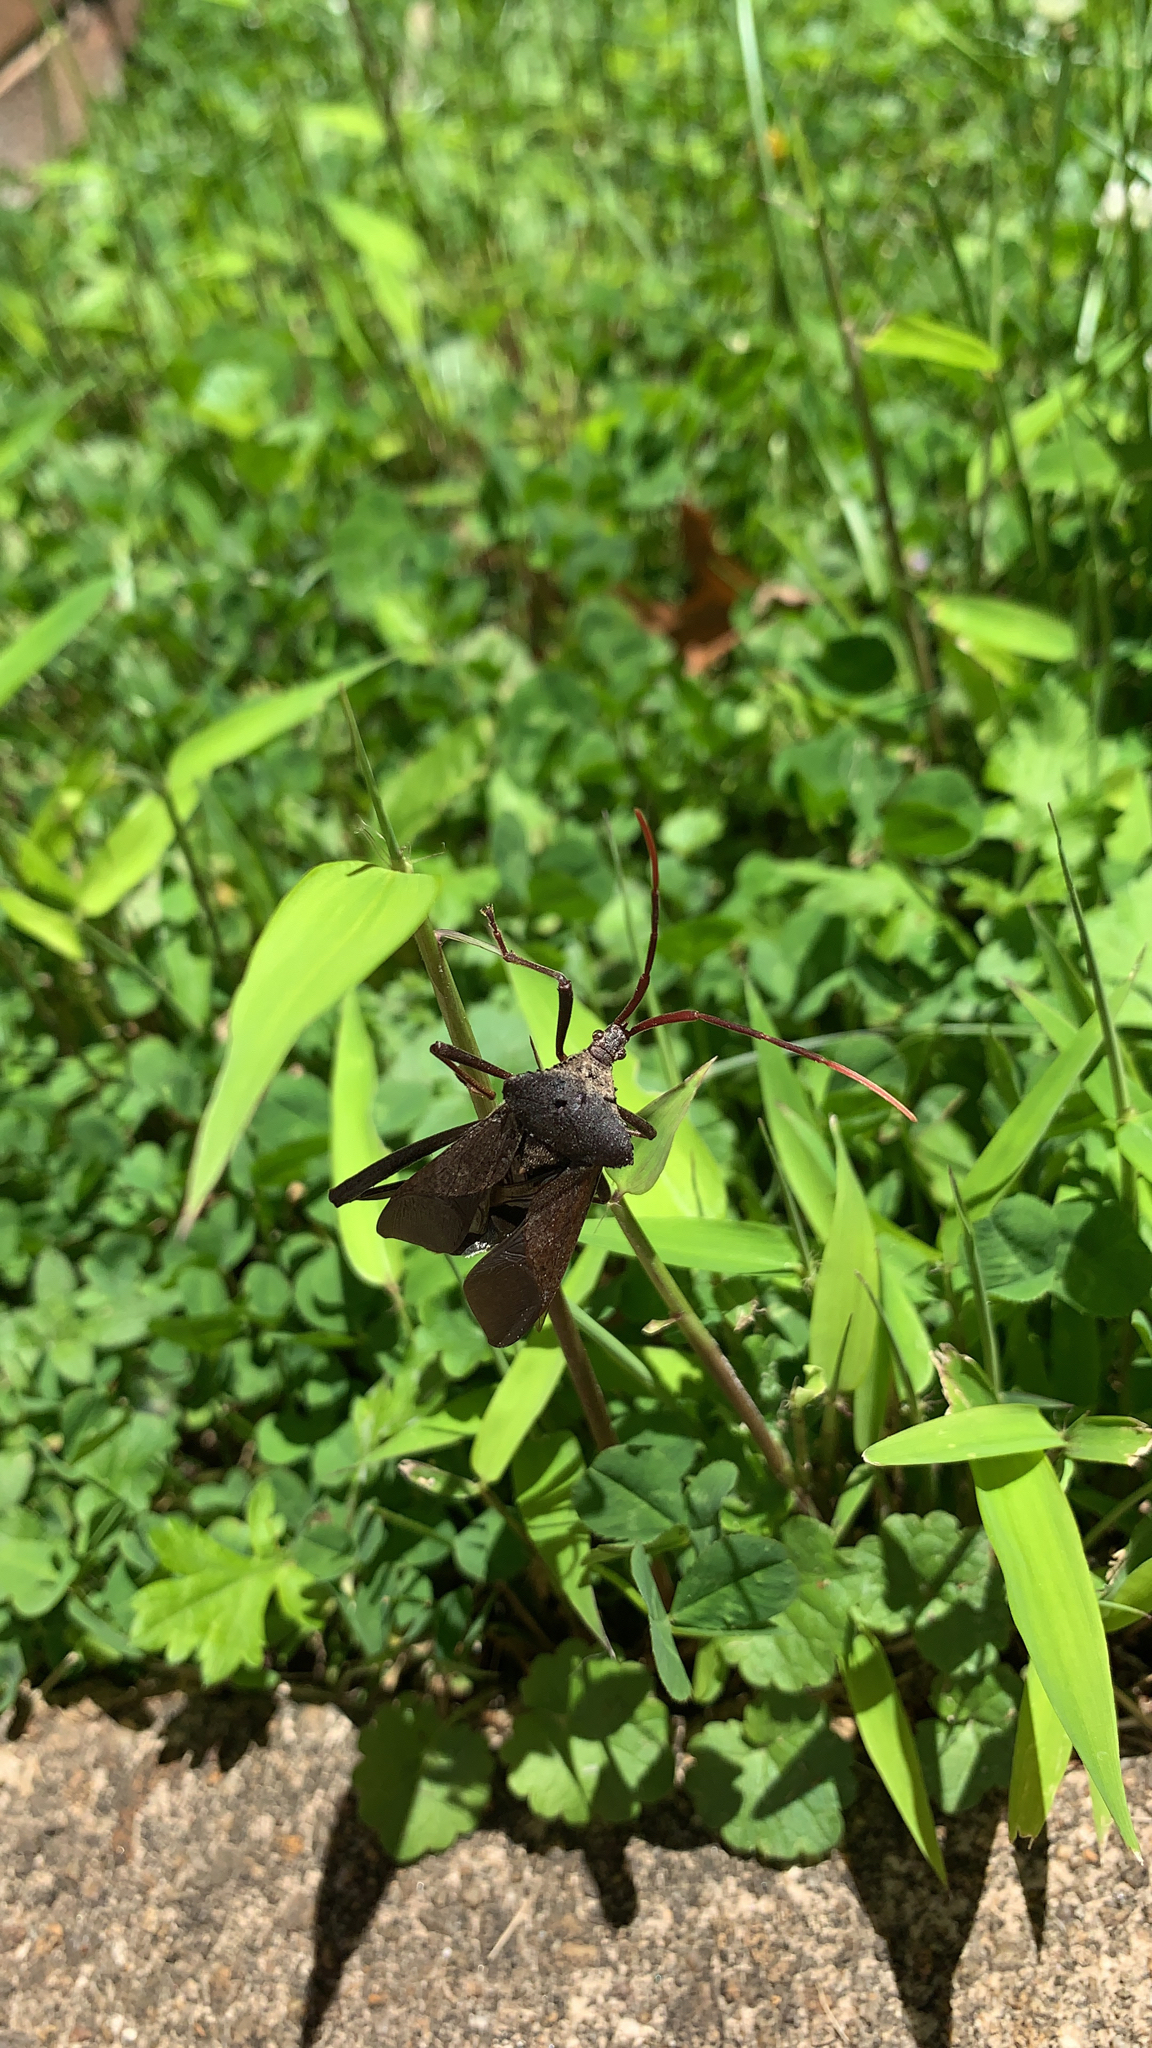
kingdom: Animalia
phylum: Arthropoda
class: Insecta
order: Hemiptera
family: Coreidae
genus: Acanthocephala
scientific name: Acanthocephala declivis
